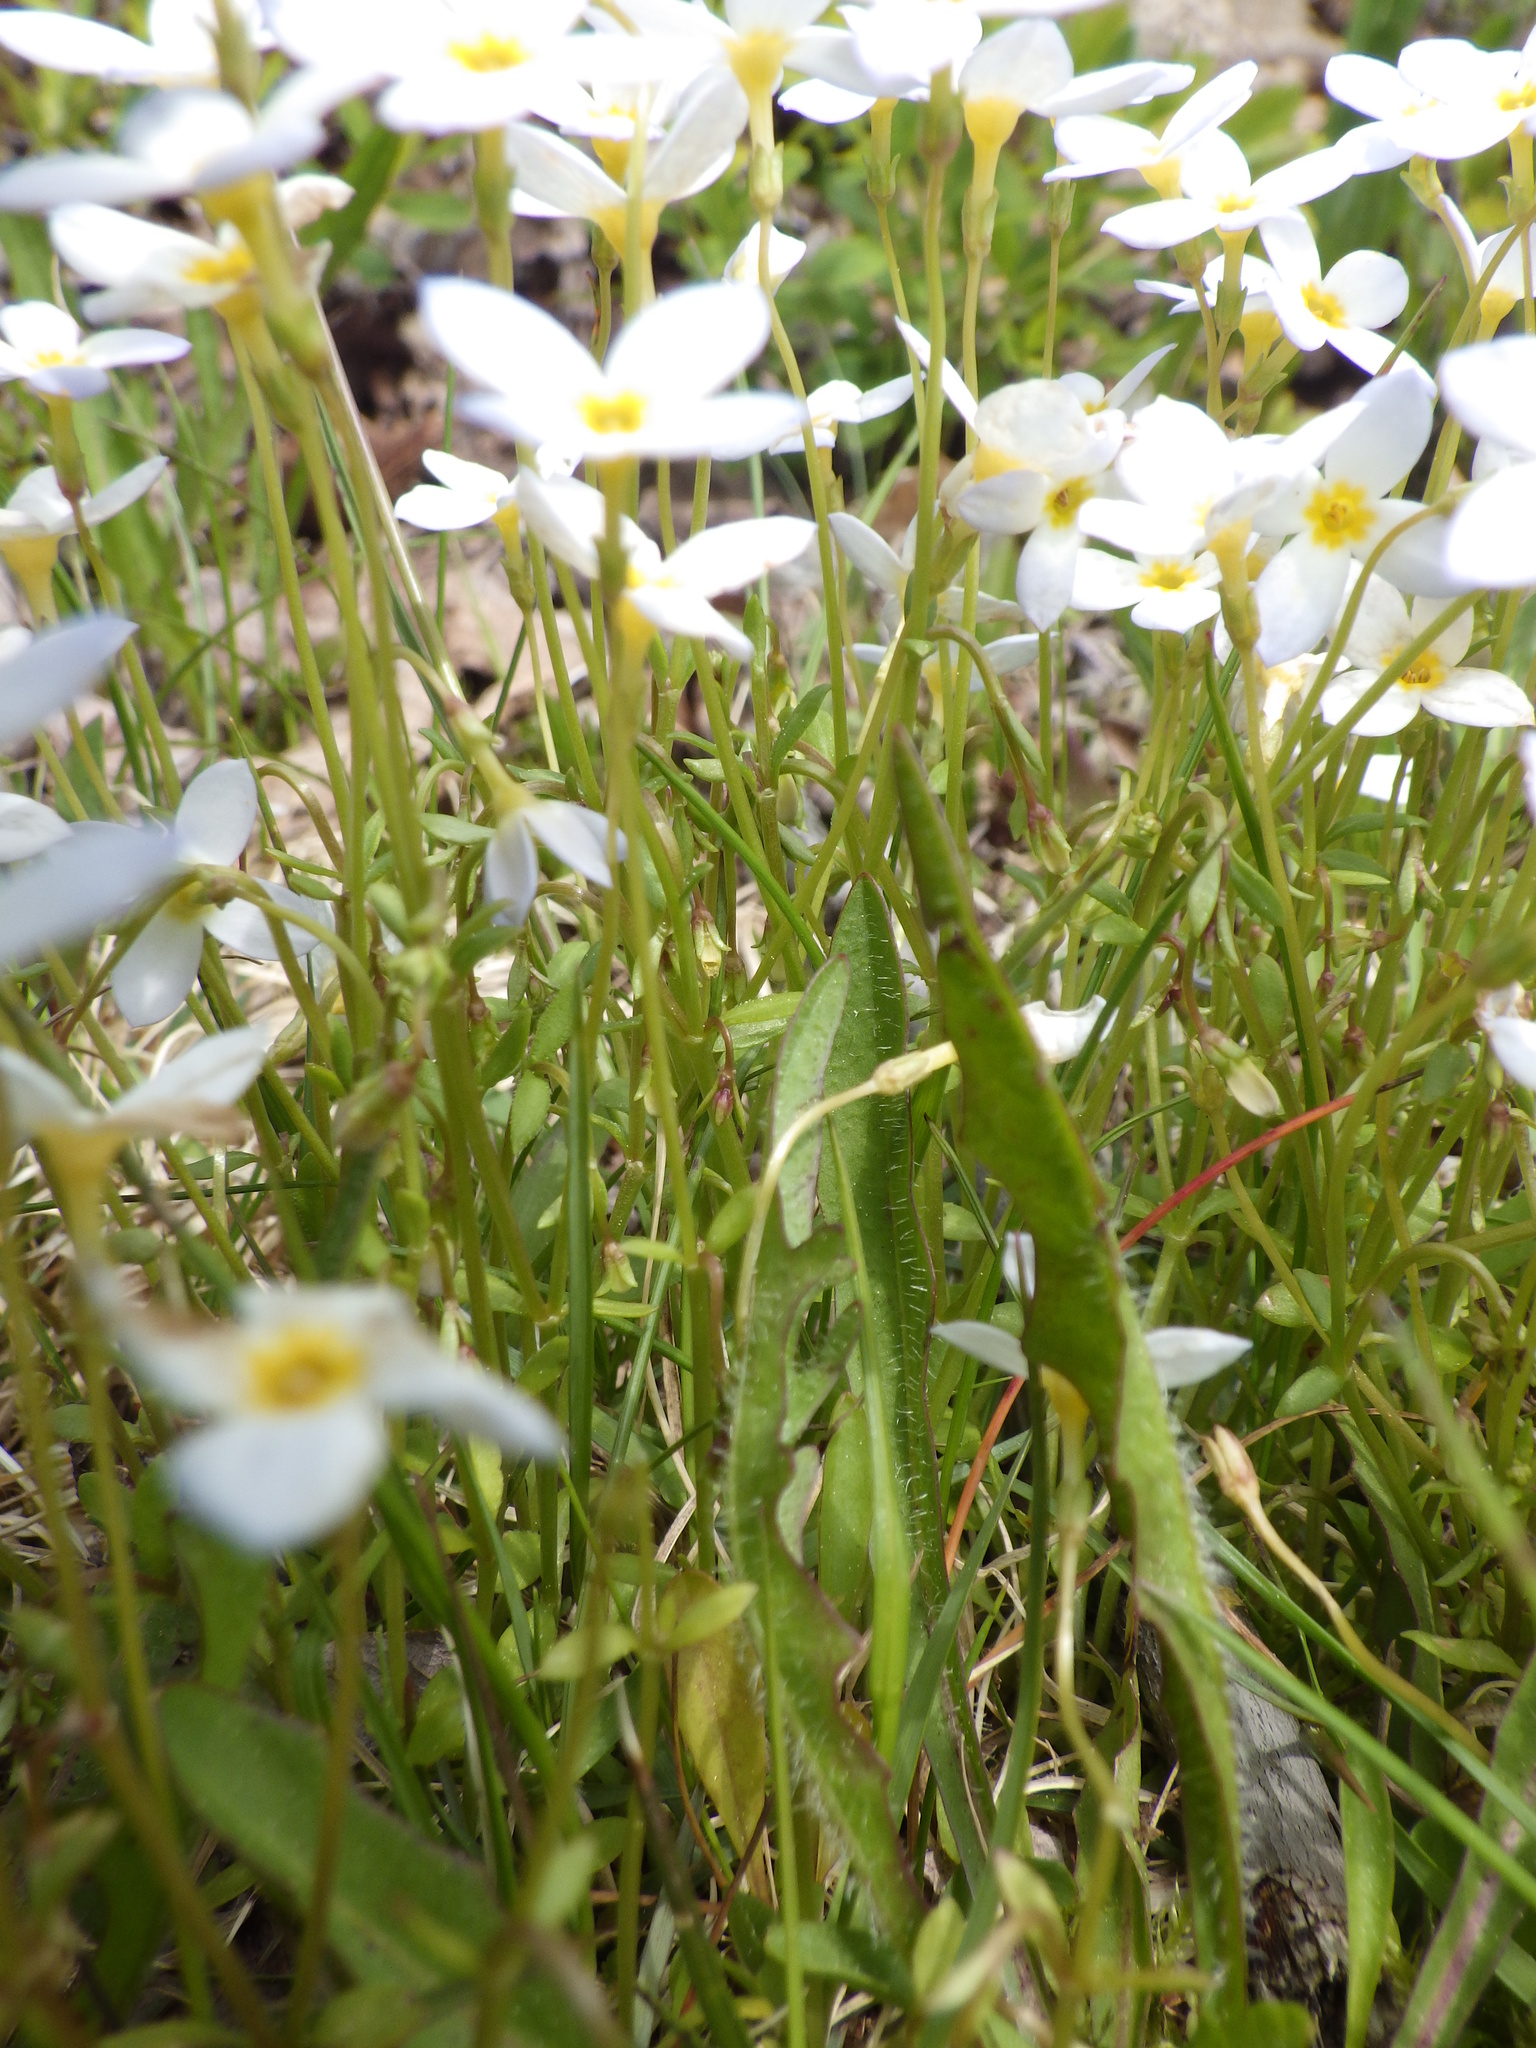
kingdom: Plantae
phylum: Tracheophyta
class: Magnoliopsida
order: Gentianales
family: Rubiaceae
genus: Houstonia
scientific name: Houstonia caerulea
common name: Bluets
